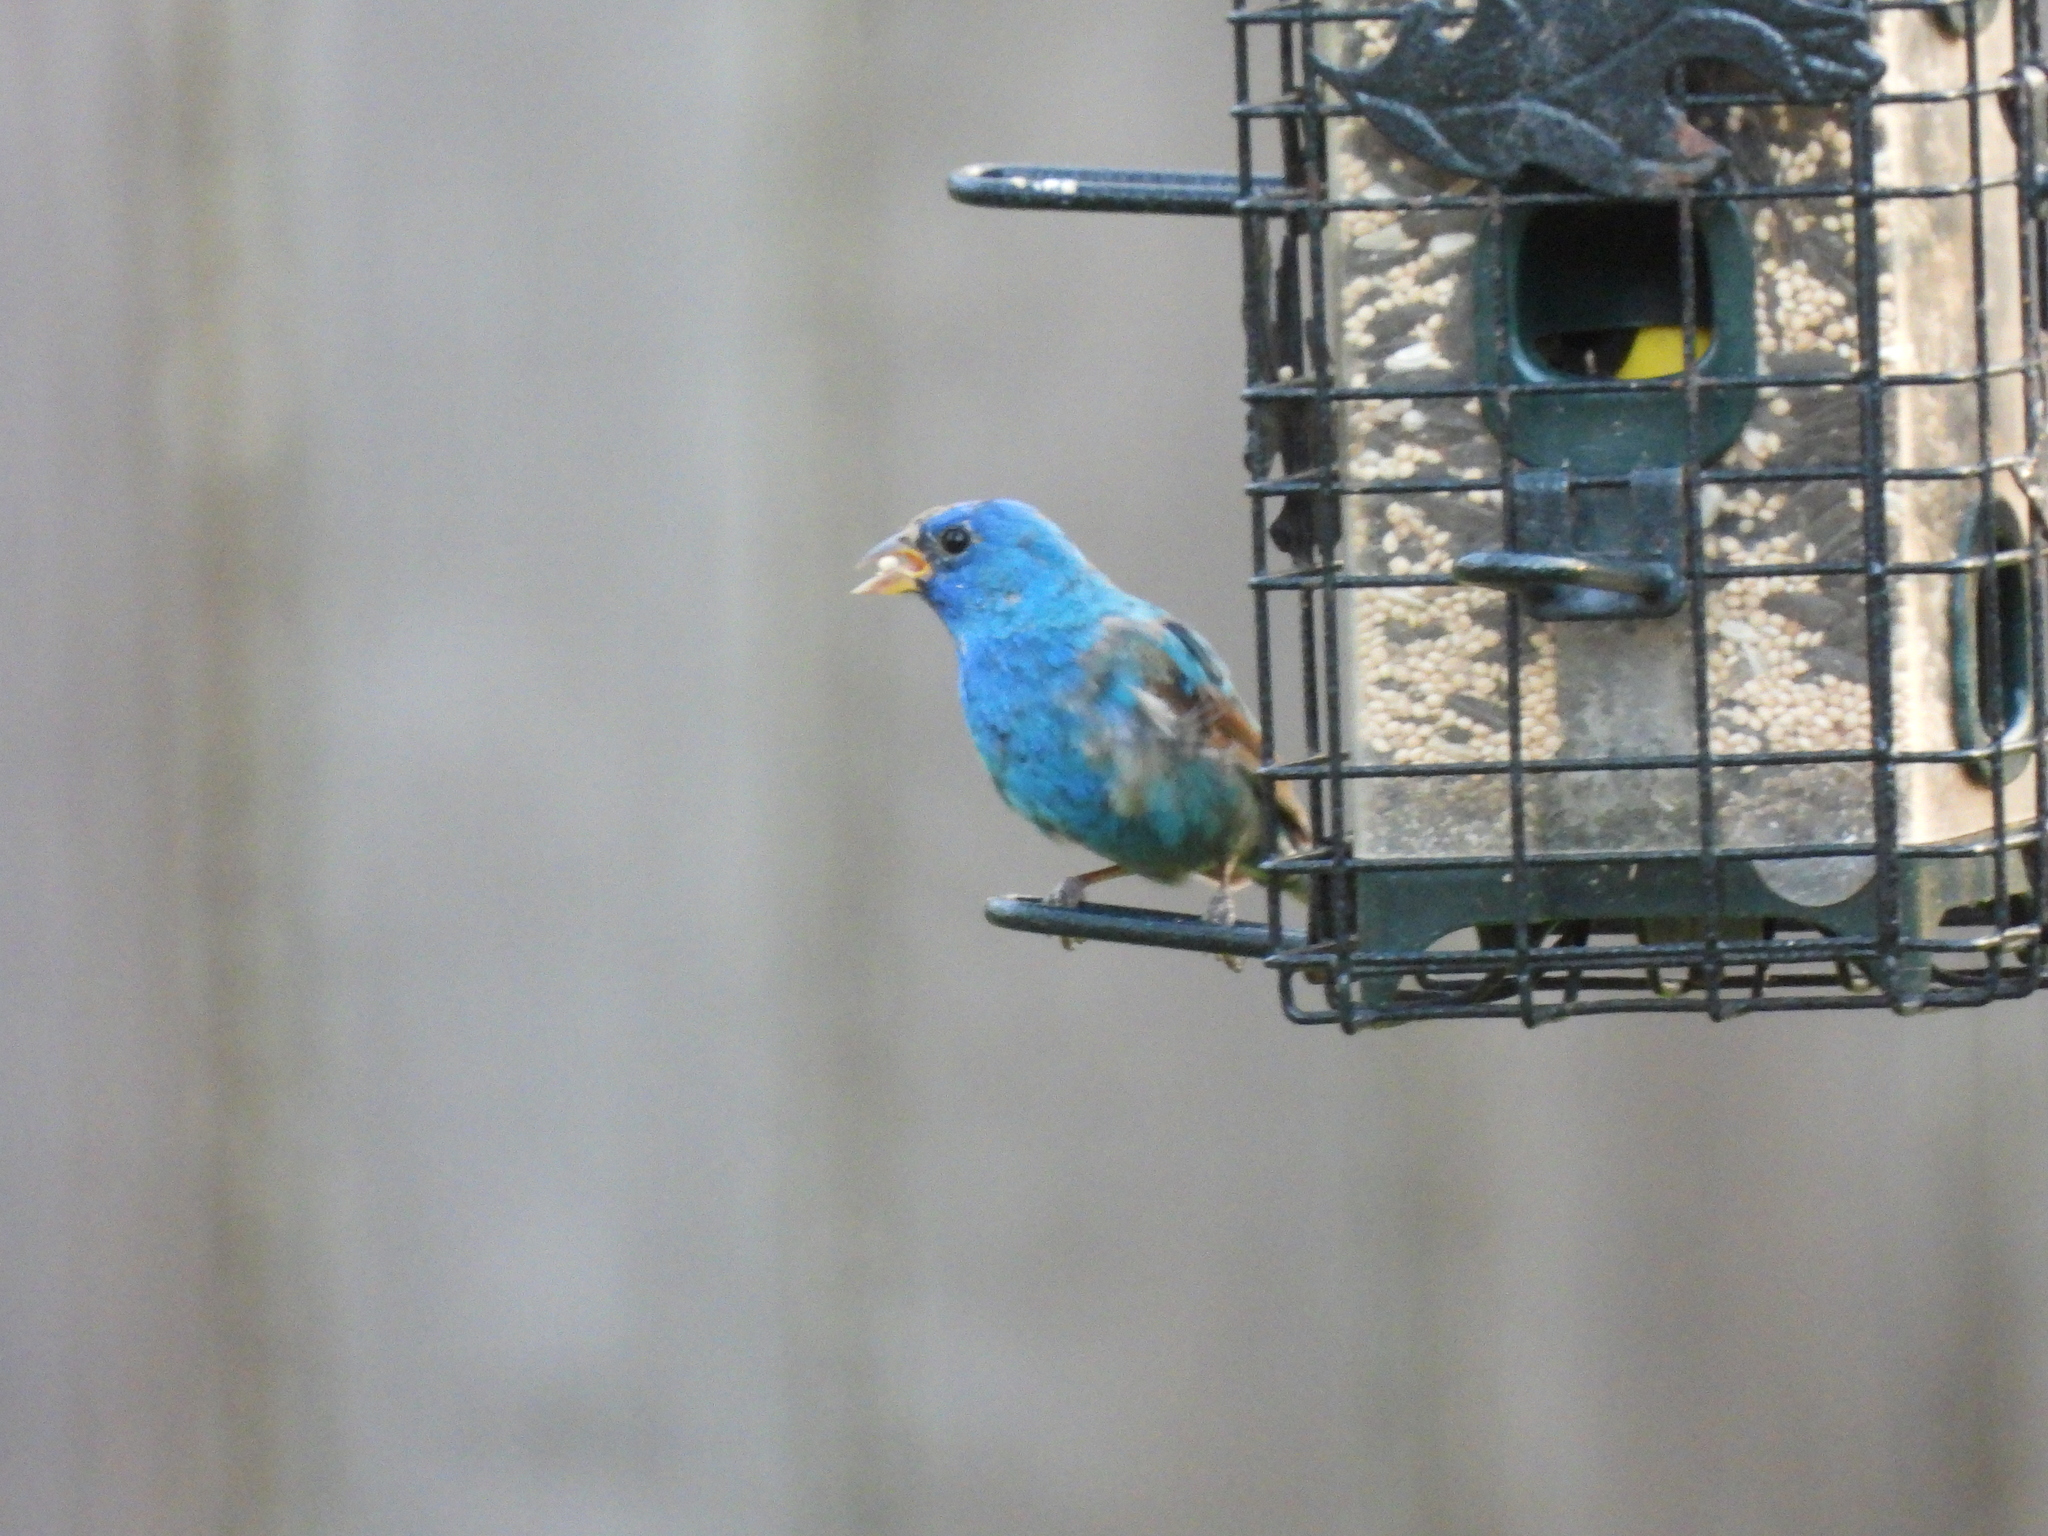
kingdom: Animalia
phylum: Chordata
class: Aves
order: Passeriformes
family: Cardinalidae
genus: Passerina
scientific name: Passerina cyanea
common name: Indigo bunting
